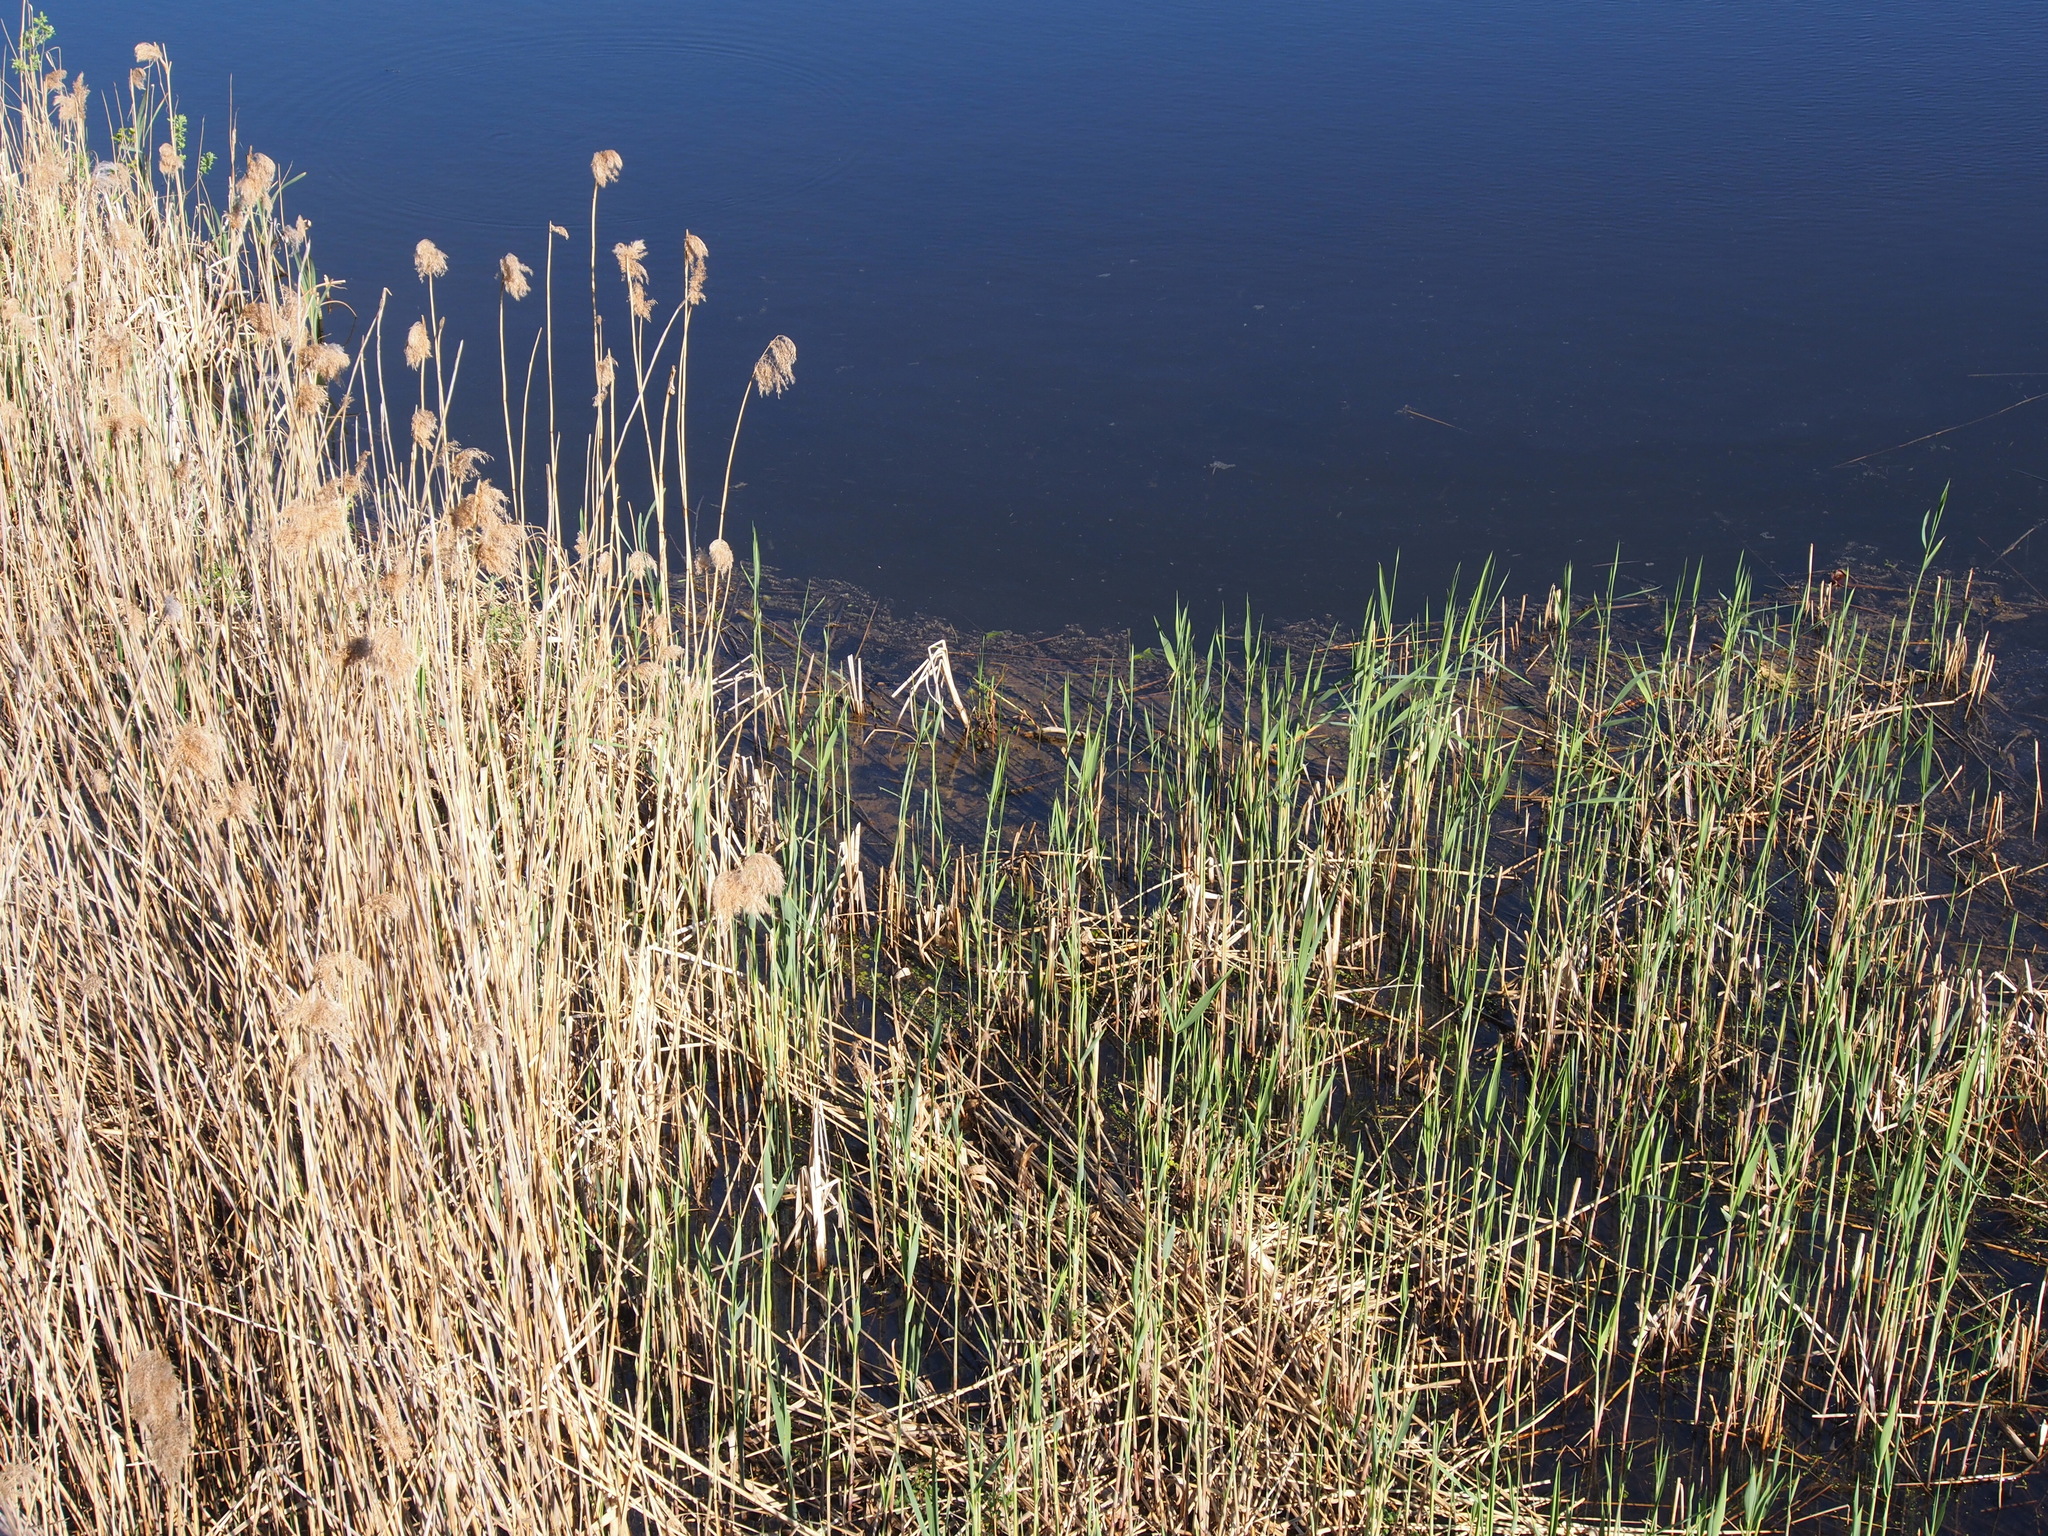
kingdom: Plantae
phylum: Tracheophyta
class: Liliopsida
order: Poales
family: Poaceae
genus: Phragmites
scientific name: Phragmites australis
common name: Common reed
